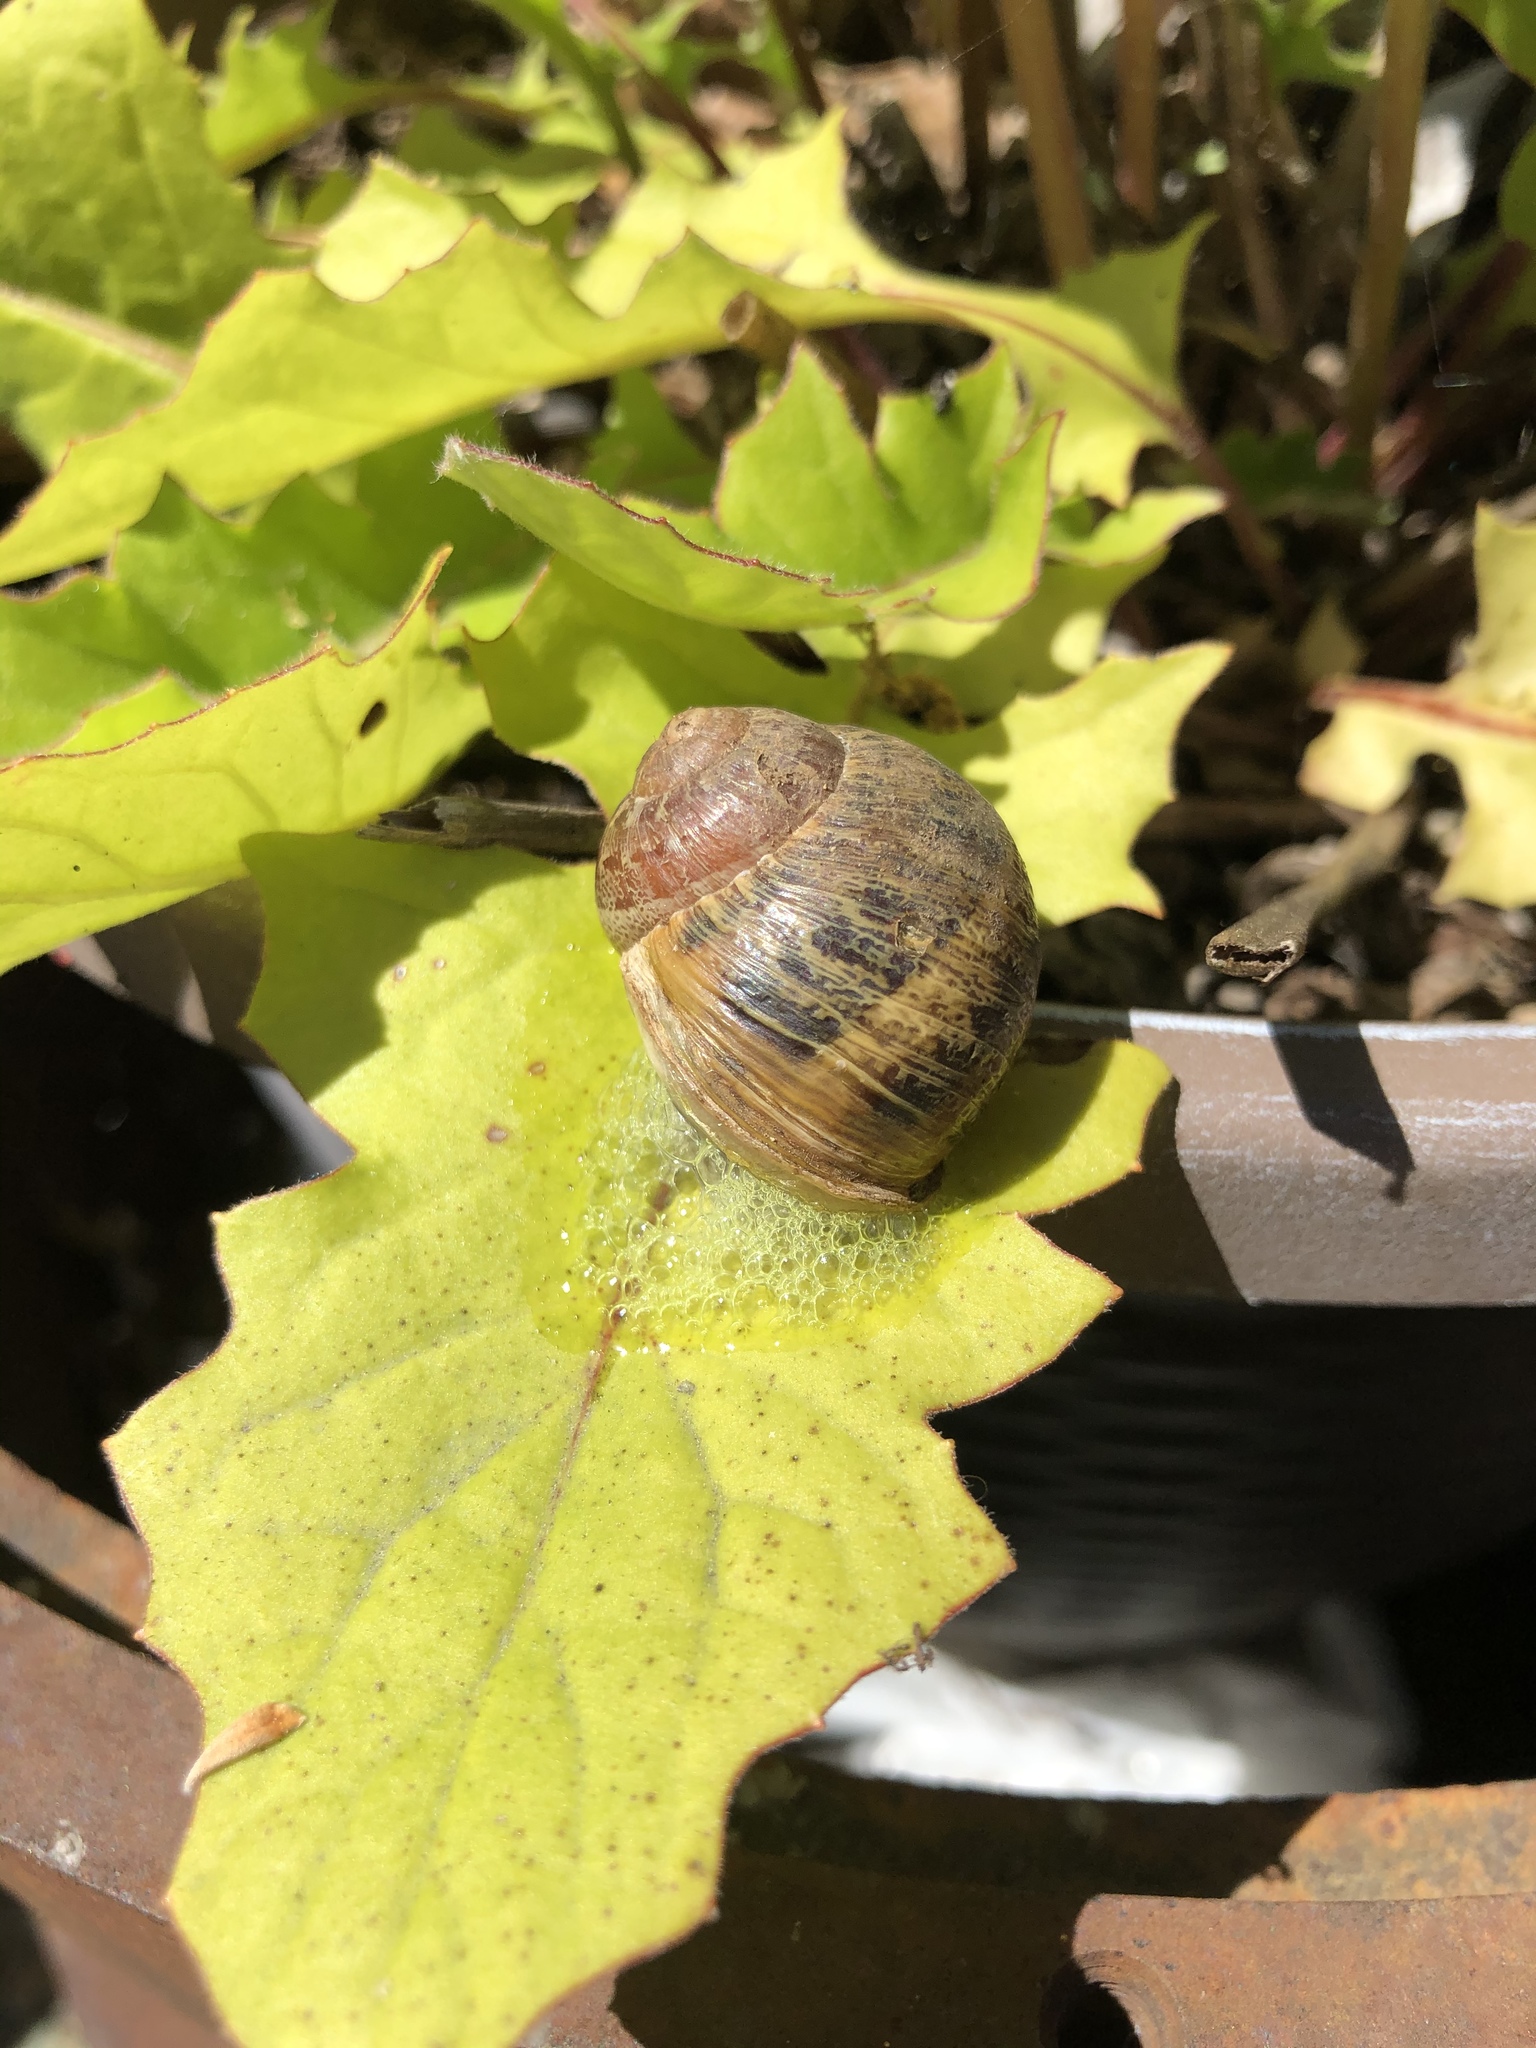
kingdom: Animalia
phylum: Mollusca
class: Gastropoda
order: Stylommatophora
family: Helicidae
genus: Cornu
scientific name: Cornu aspersum
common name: Brown garden snail
